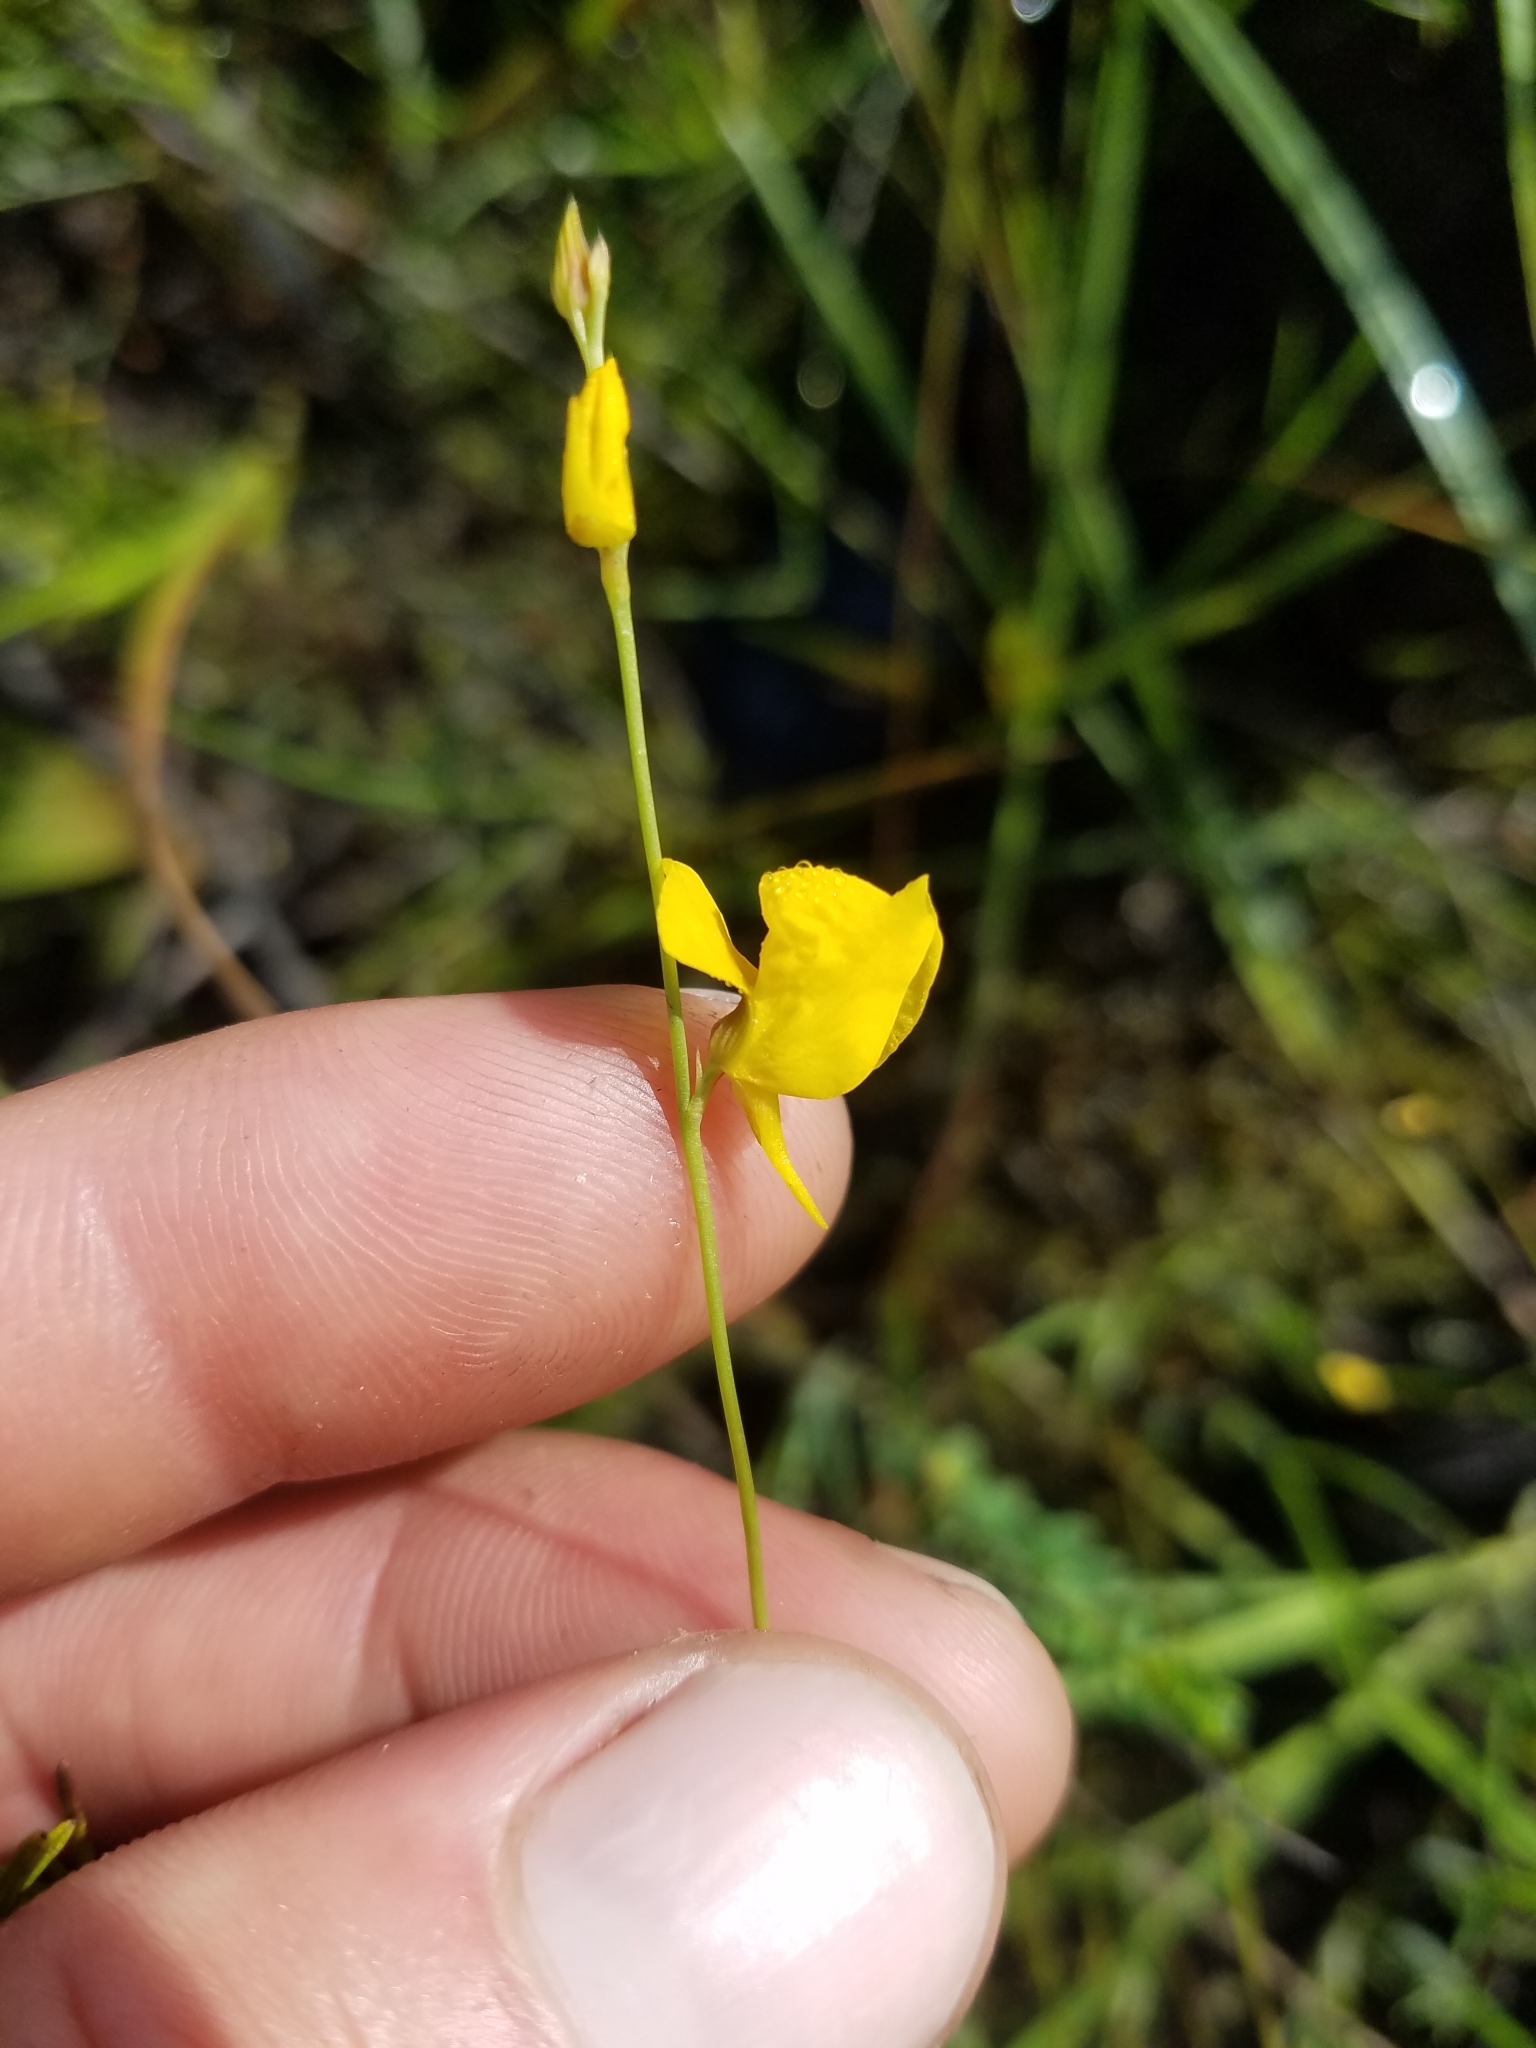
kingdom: Plantae
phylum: Tracheophyta
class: Magnoliopsida
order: Lamiales
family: Lentibulariaceae
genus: Utricularia
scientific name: Utricularia juncea
